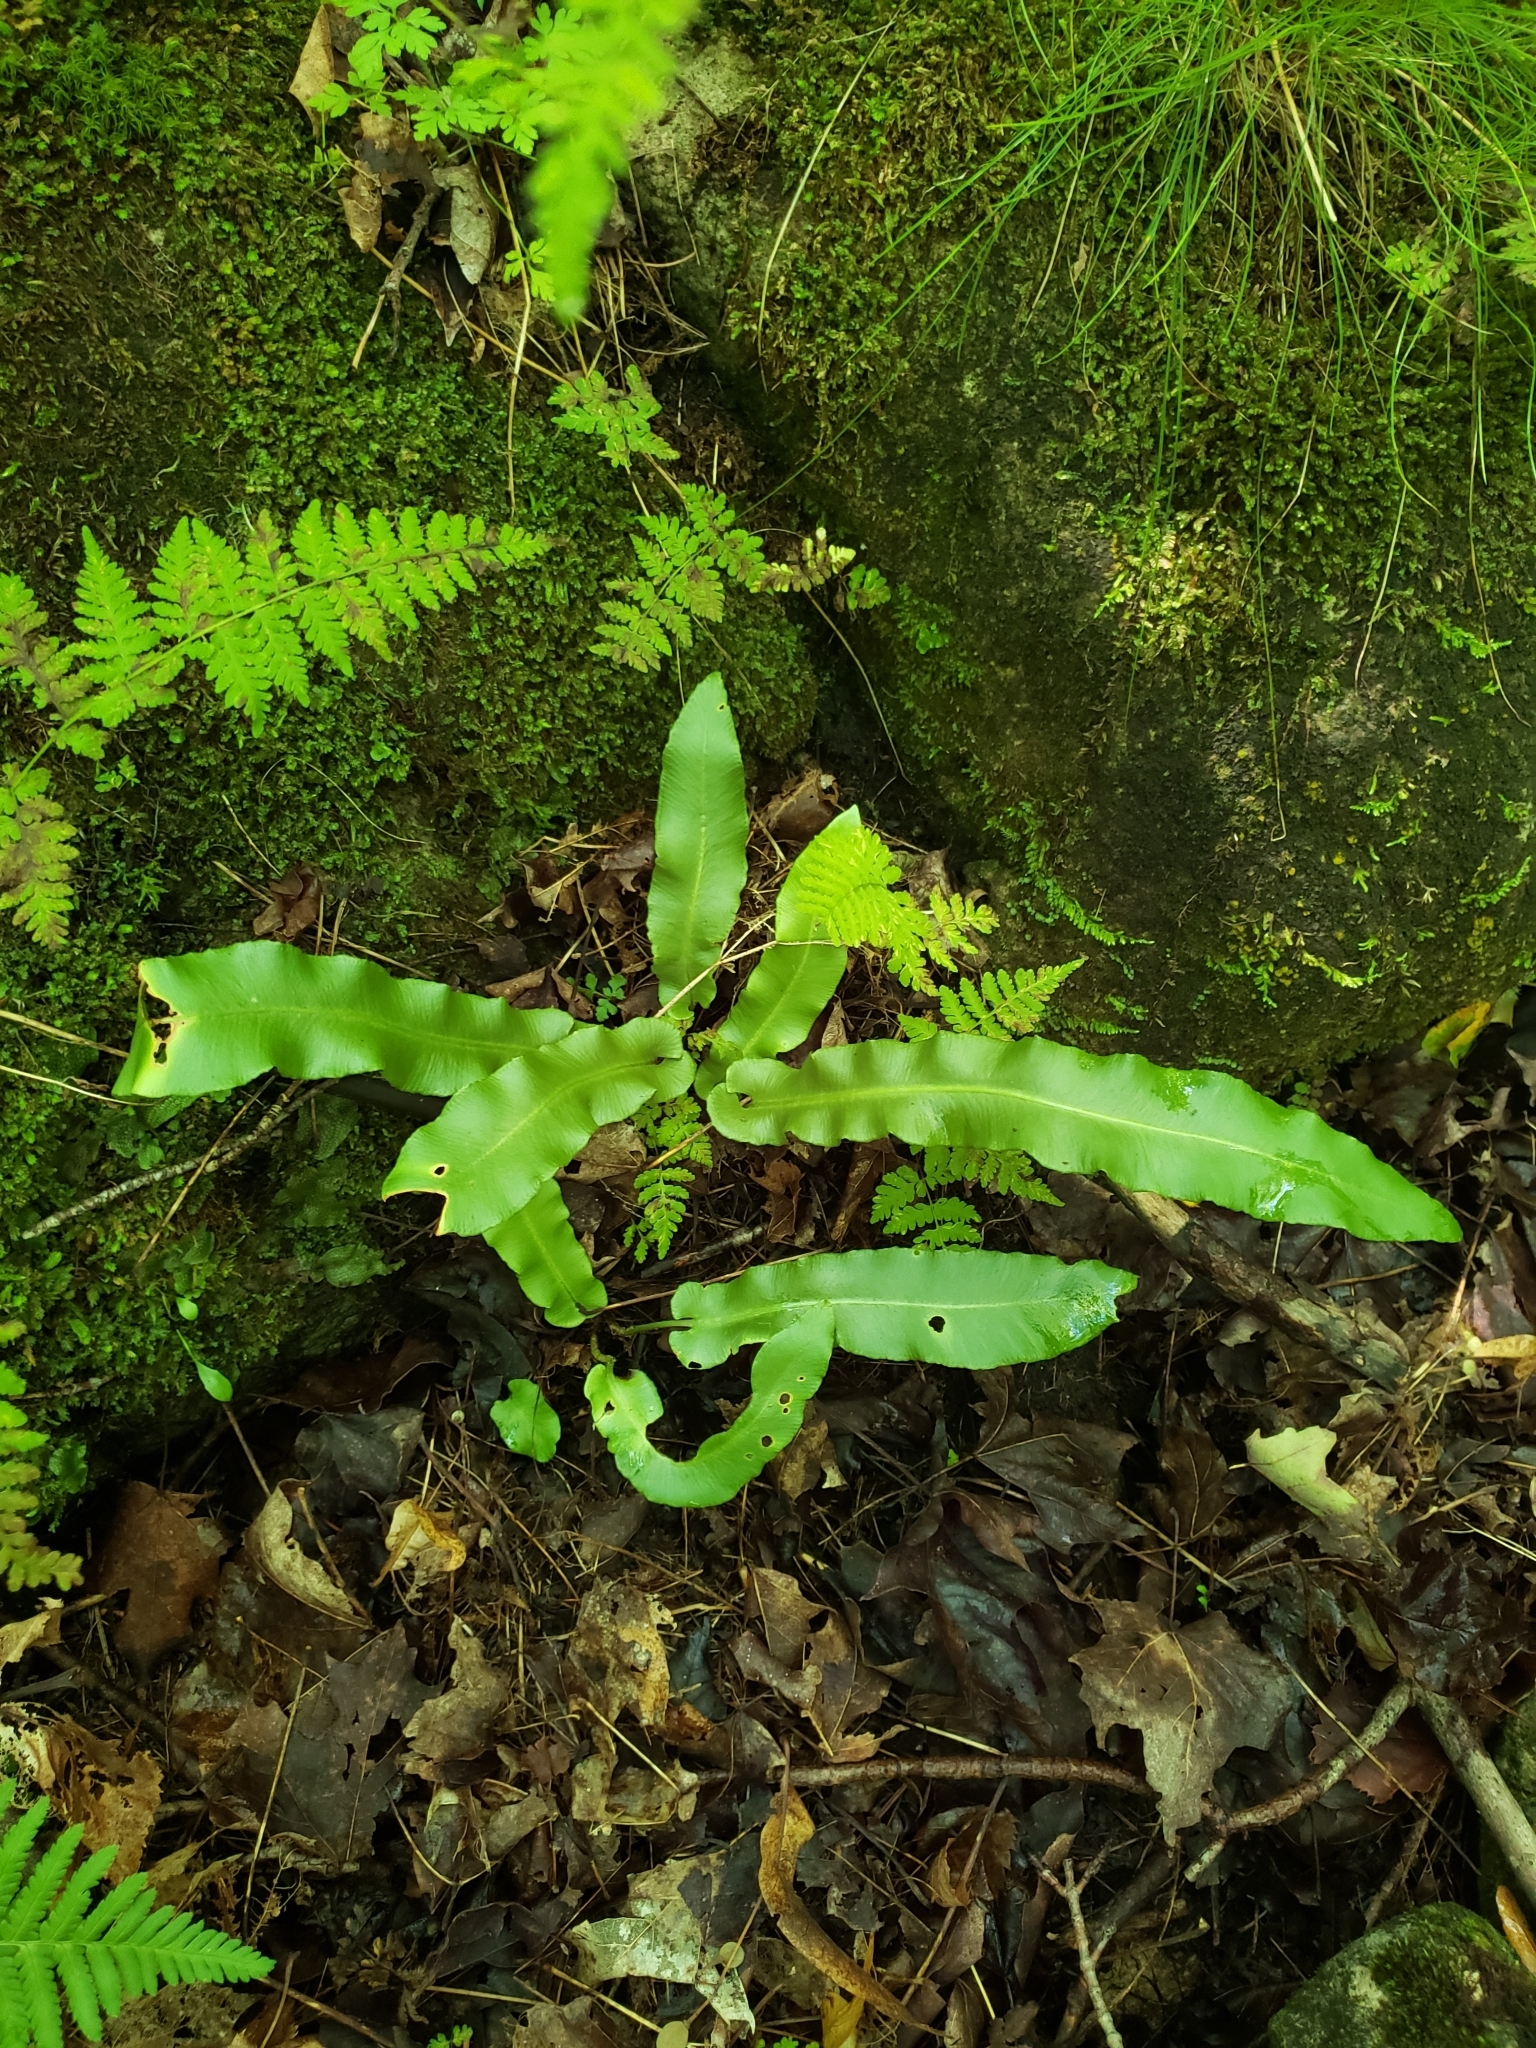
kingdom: Plantae
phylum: Tracheophyta
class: Polypodiopsida
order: Polypodiales
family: Aspleniaceae
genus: Asplenium
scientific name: Asplenium scolopendrium
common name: Hart's-tongue fern
